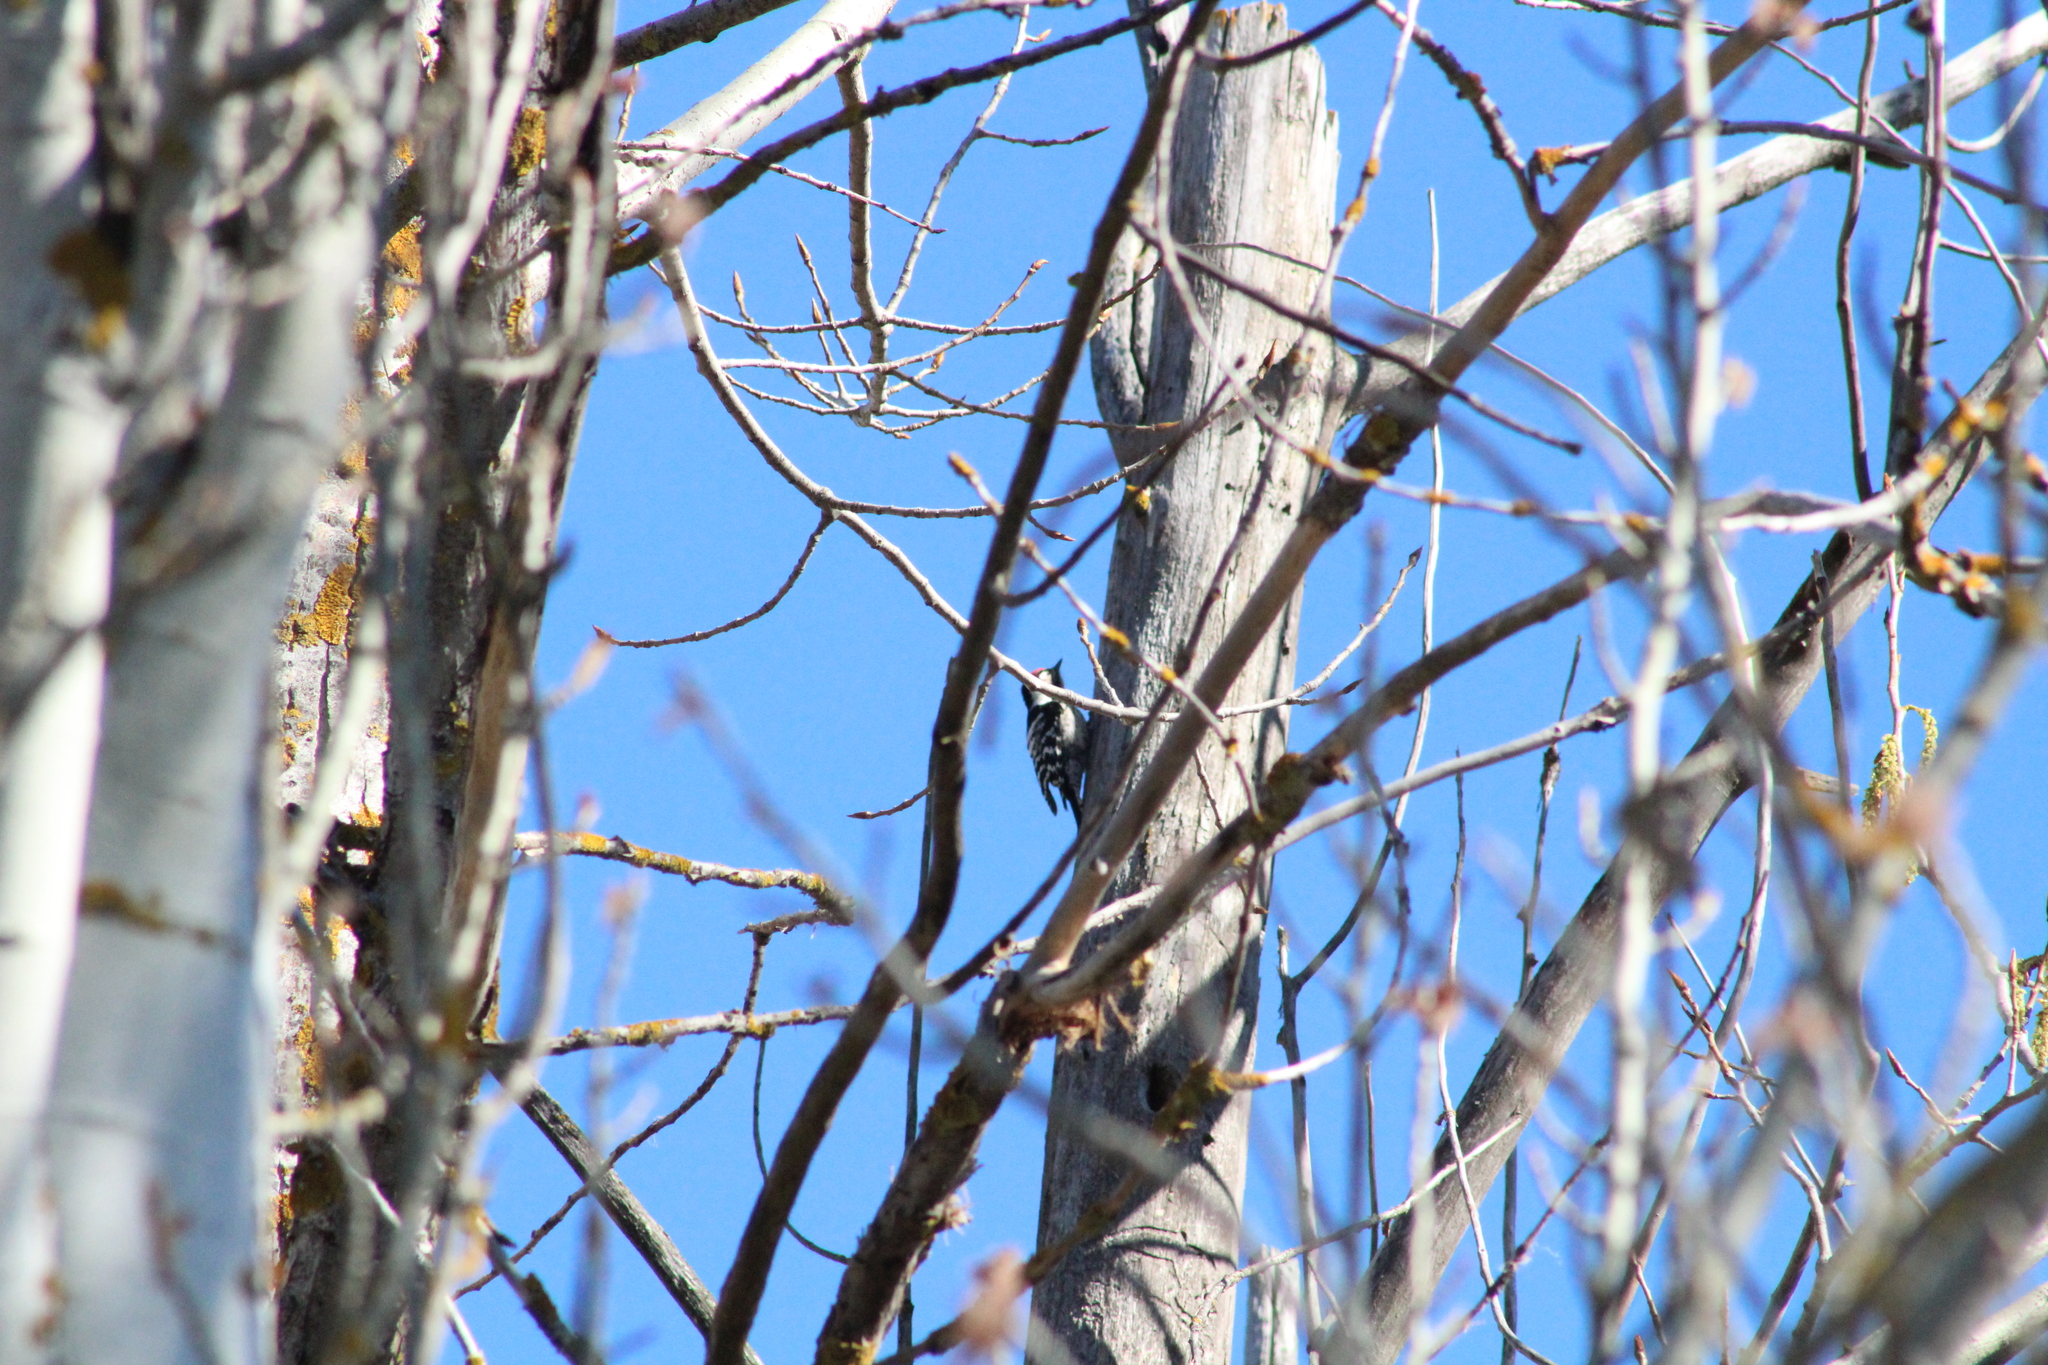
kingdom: Animalia
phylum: Chordata
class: Aves
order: Piciformes
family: Picidae
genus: Dryobates
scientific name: Dryobates minor
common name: Lesser spotted woodpecker
